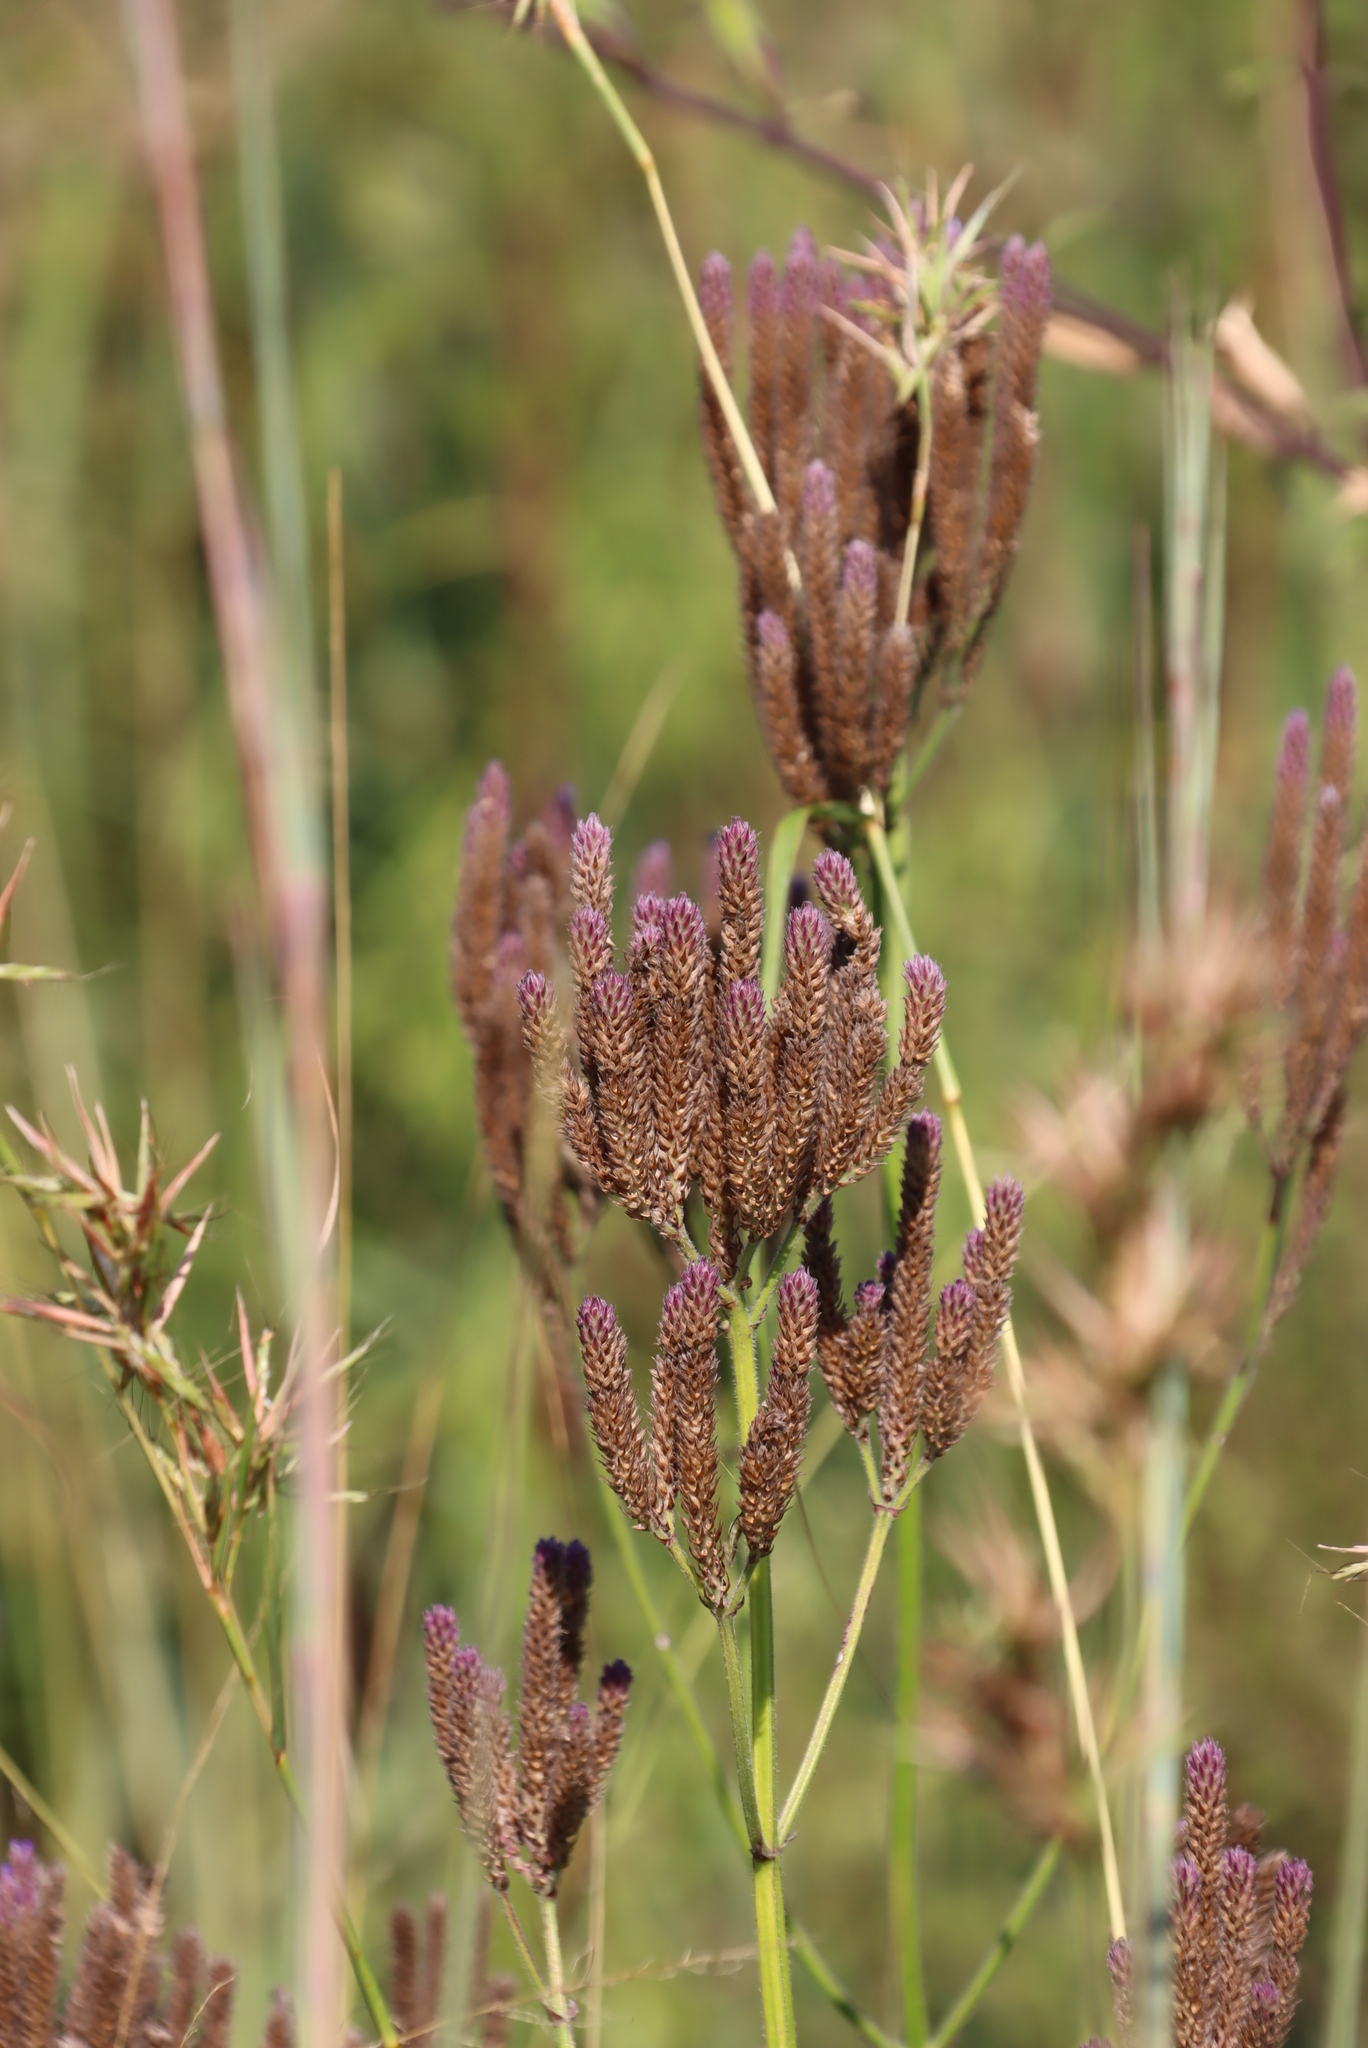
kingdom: Plantae
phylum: Tracheophyta
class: Magnoliopsida
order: Lamiales
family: Verbenaceae
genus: Verbena
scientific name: Verbena bonariensis
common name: Purpletop vervain
